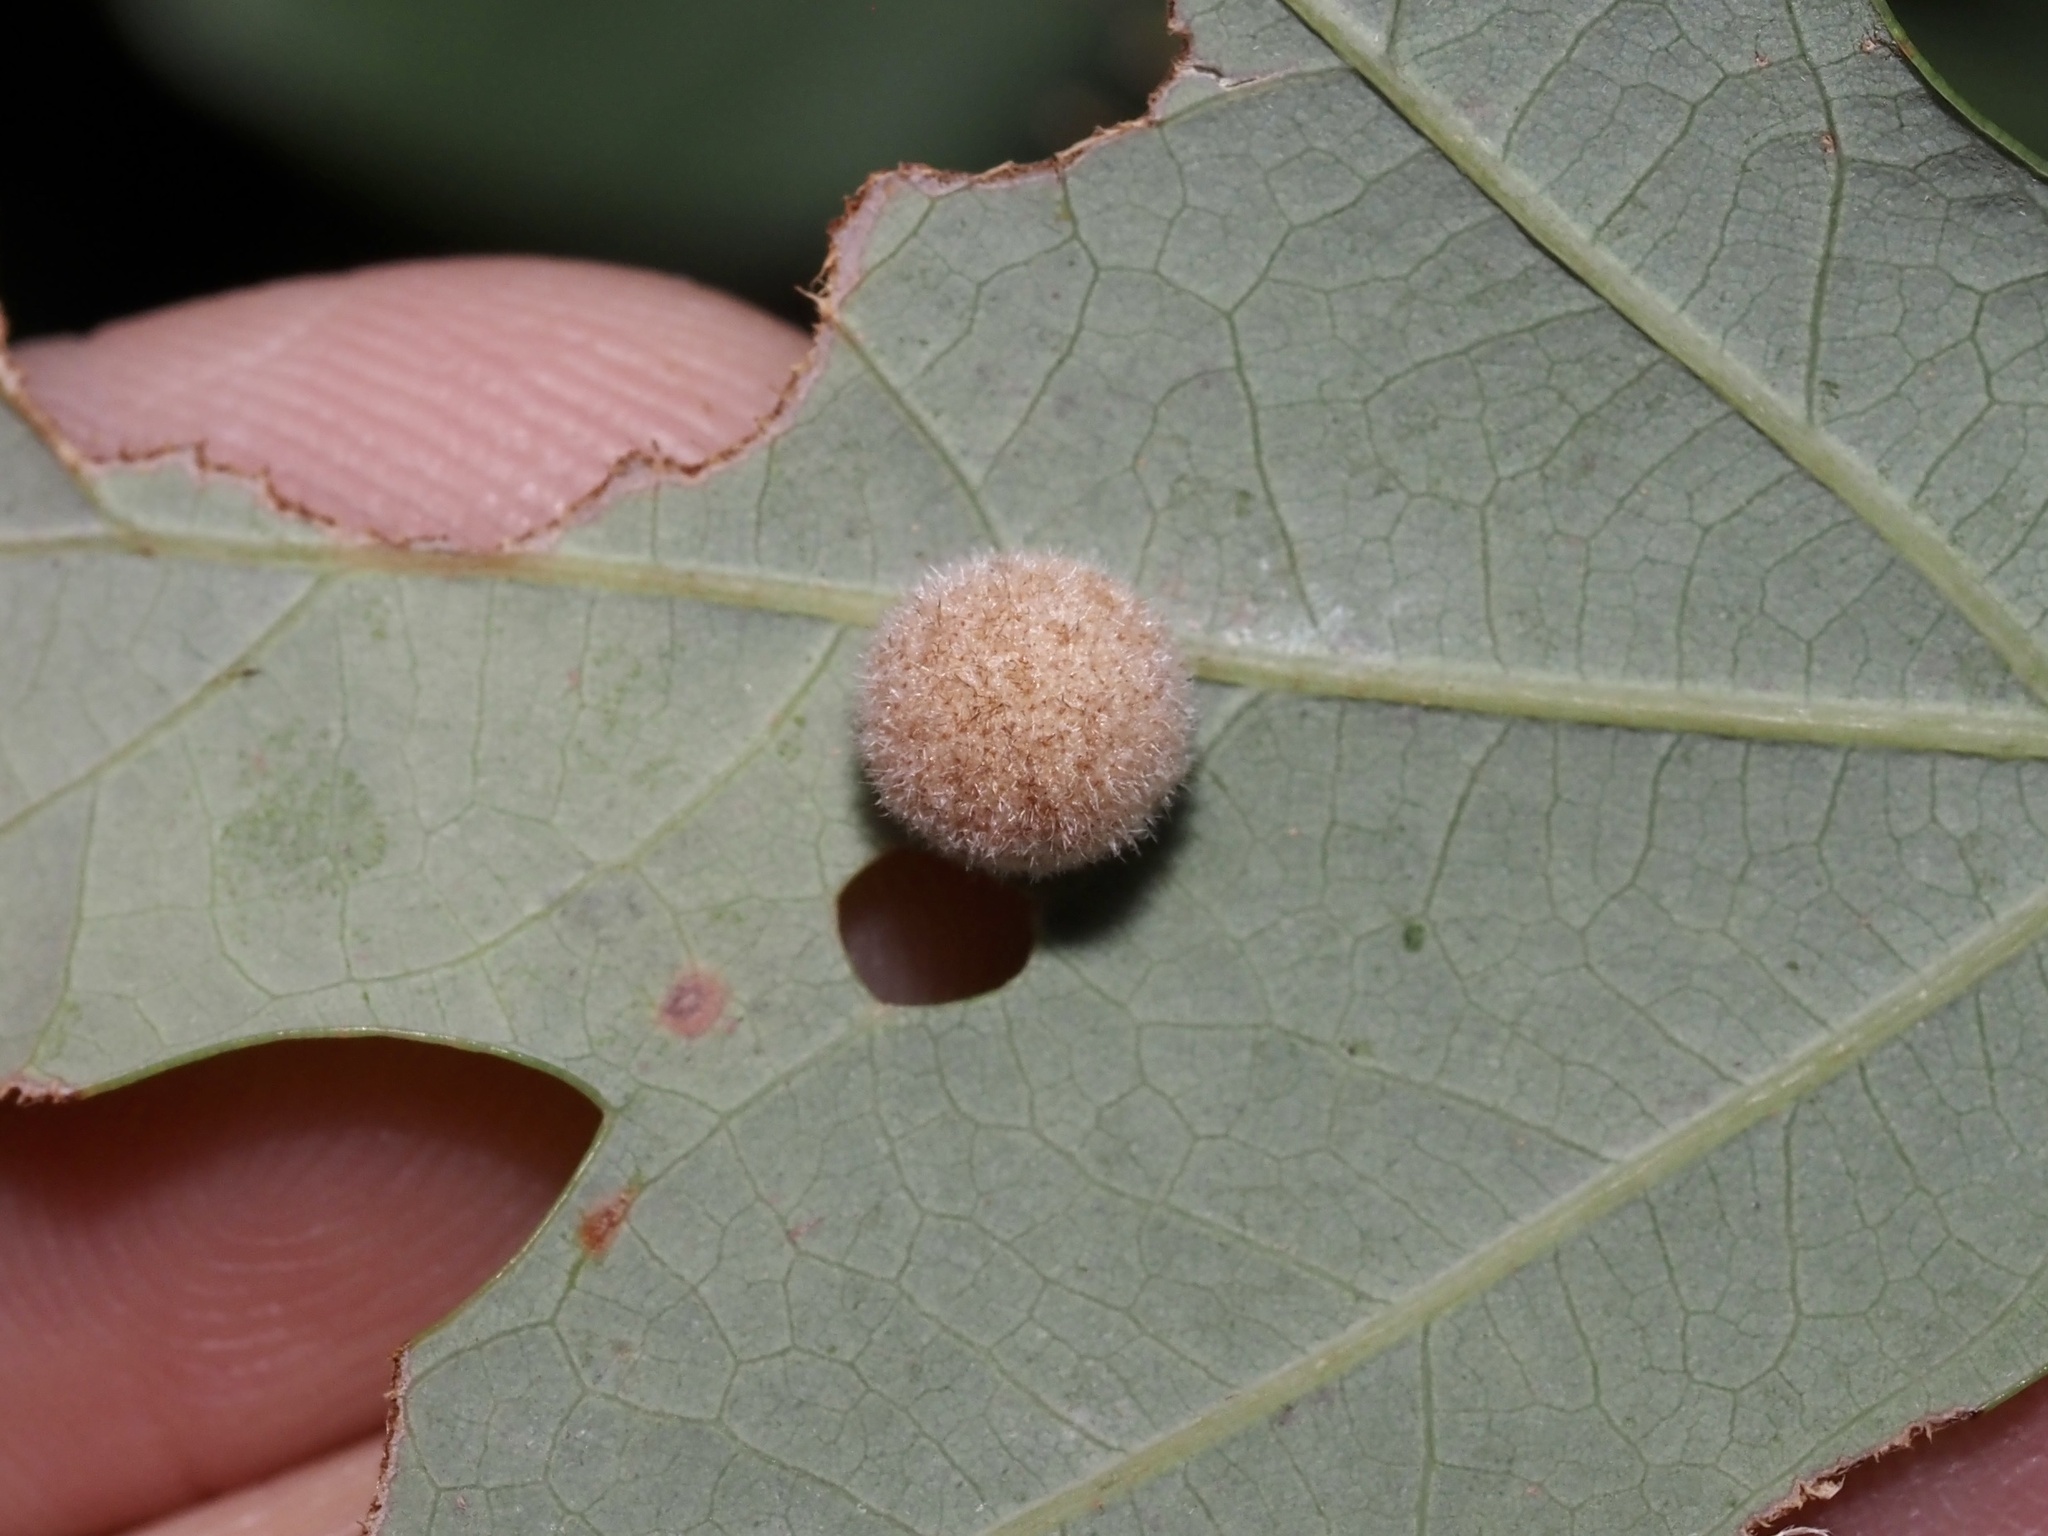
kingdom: Animalia
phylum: Arthropoda
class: Insecta
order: Hymenoptera
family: Cynipidae
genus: Philonix
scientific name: Philonix fulvicollis
